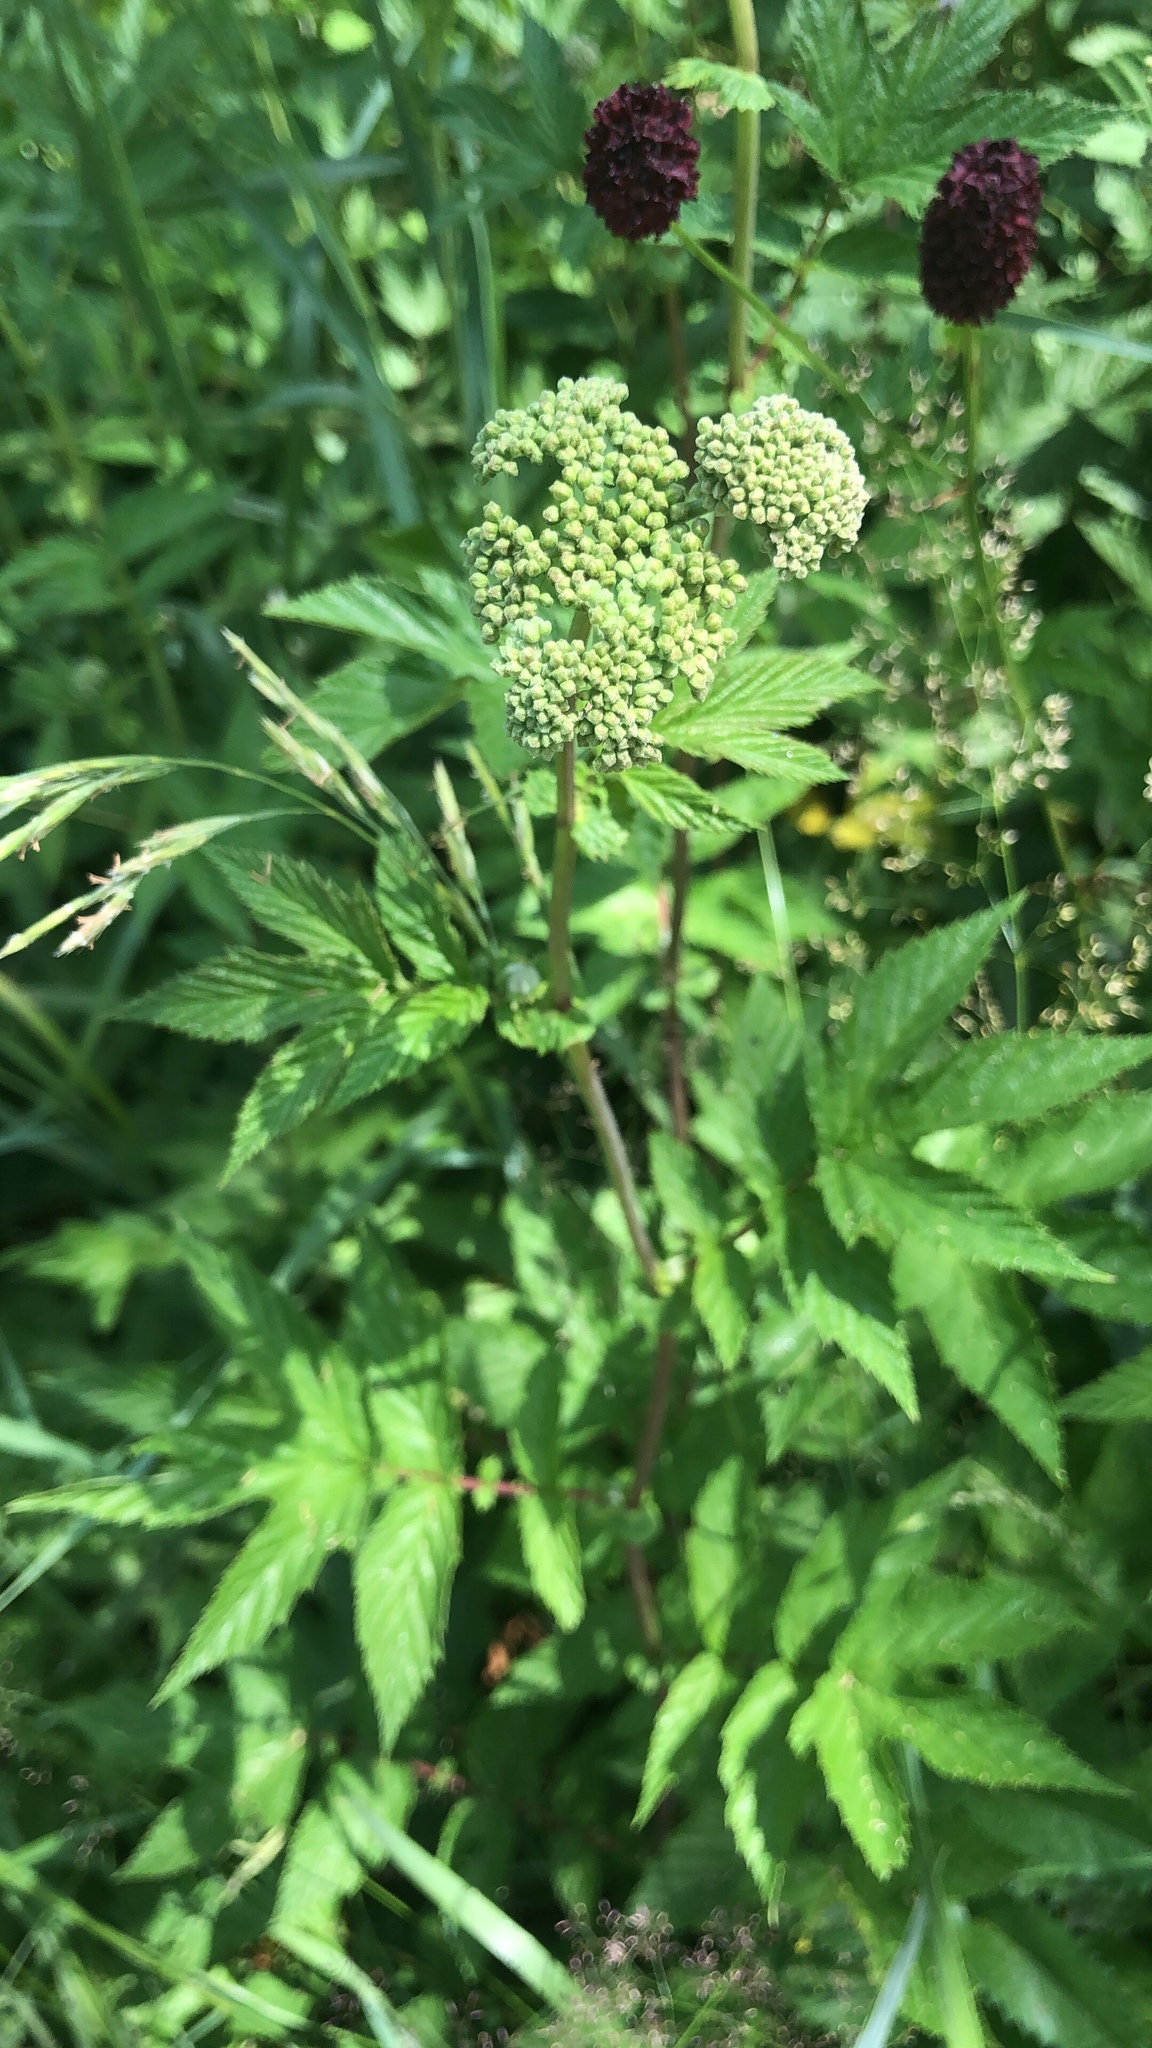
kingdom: Plantae
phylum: Tracheophyta
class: Magnoliopsida
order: Rosales
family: Rosaceae
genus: Filipendula
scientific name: Filipendula ulmaria
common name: Meadowsweet
